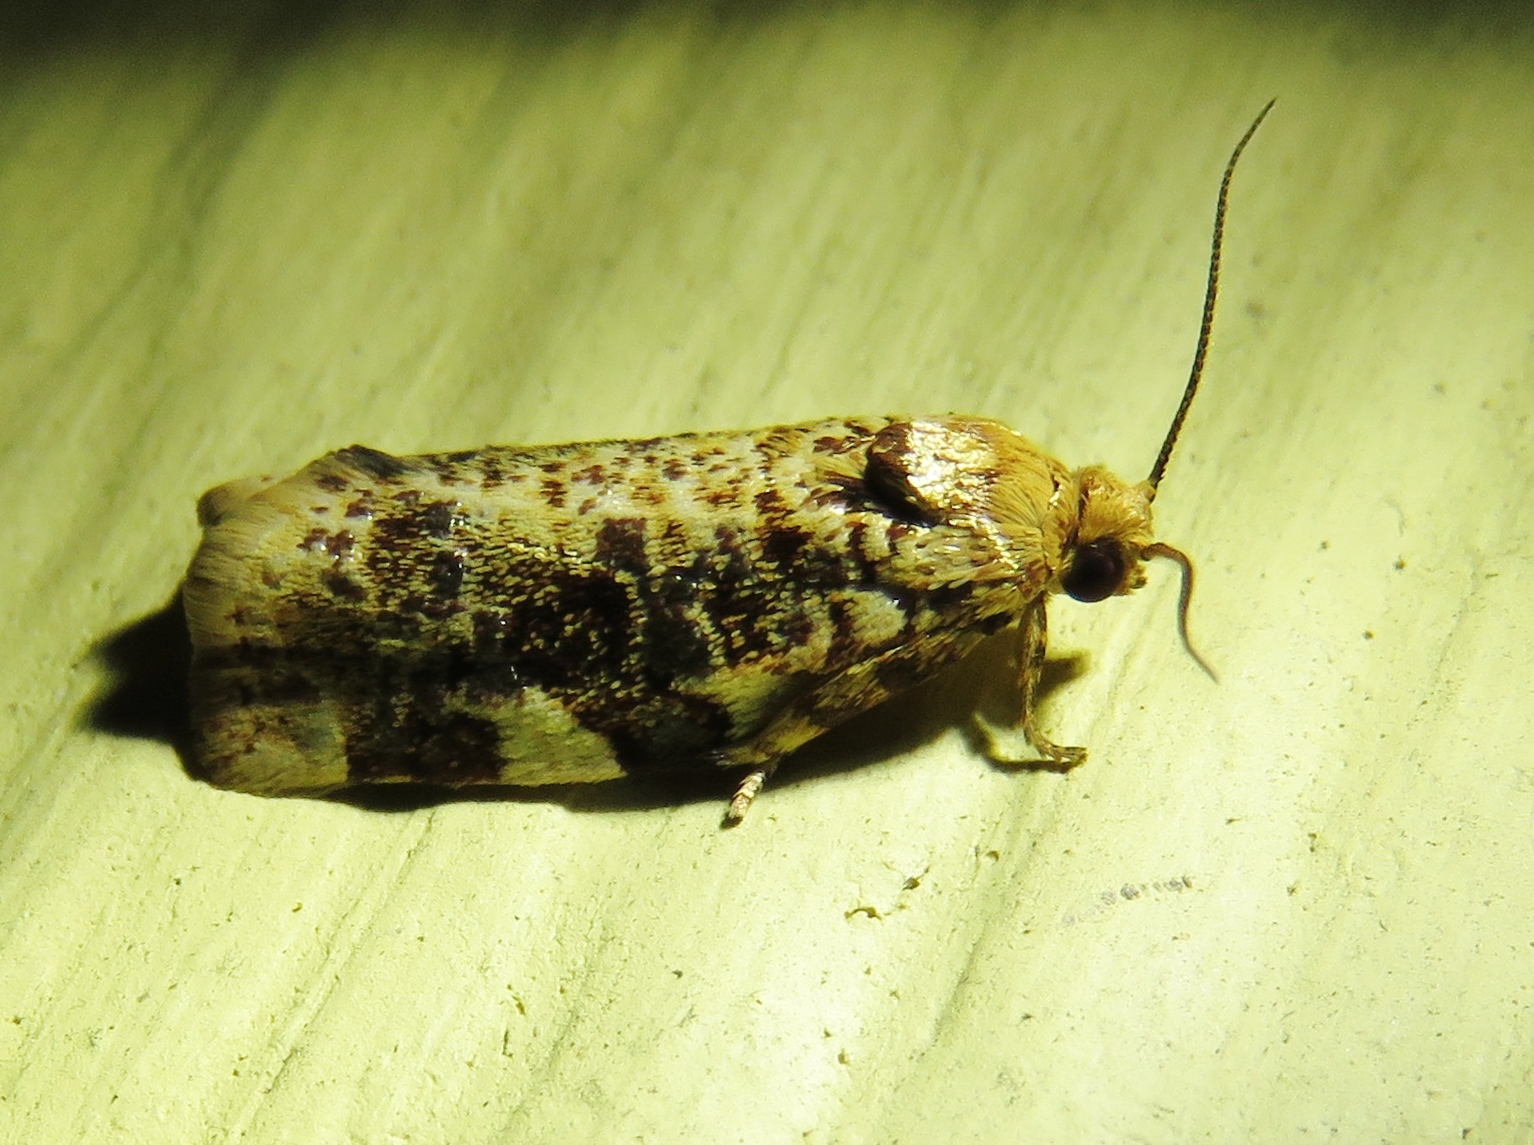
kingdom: Animalia
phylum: Arthropoda
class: Insecta
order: Lepidoptera
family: Tortricidae
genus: Archips
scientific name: Archips argyrospila
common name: Fruit-tree leafroller moth
